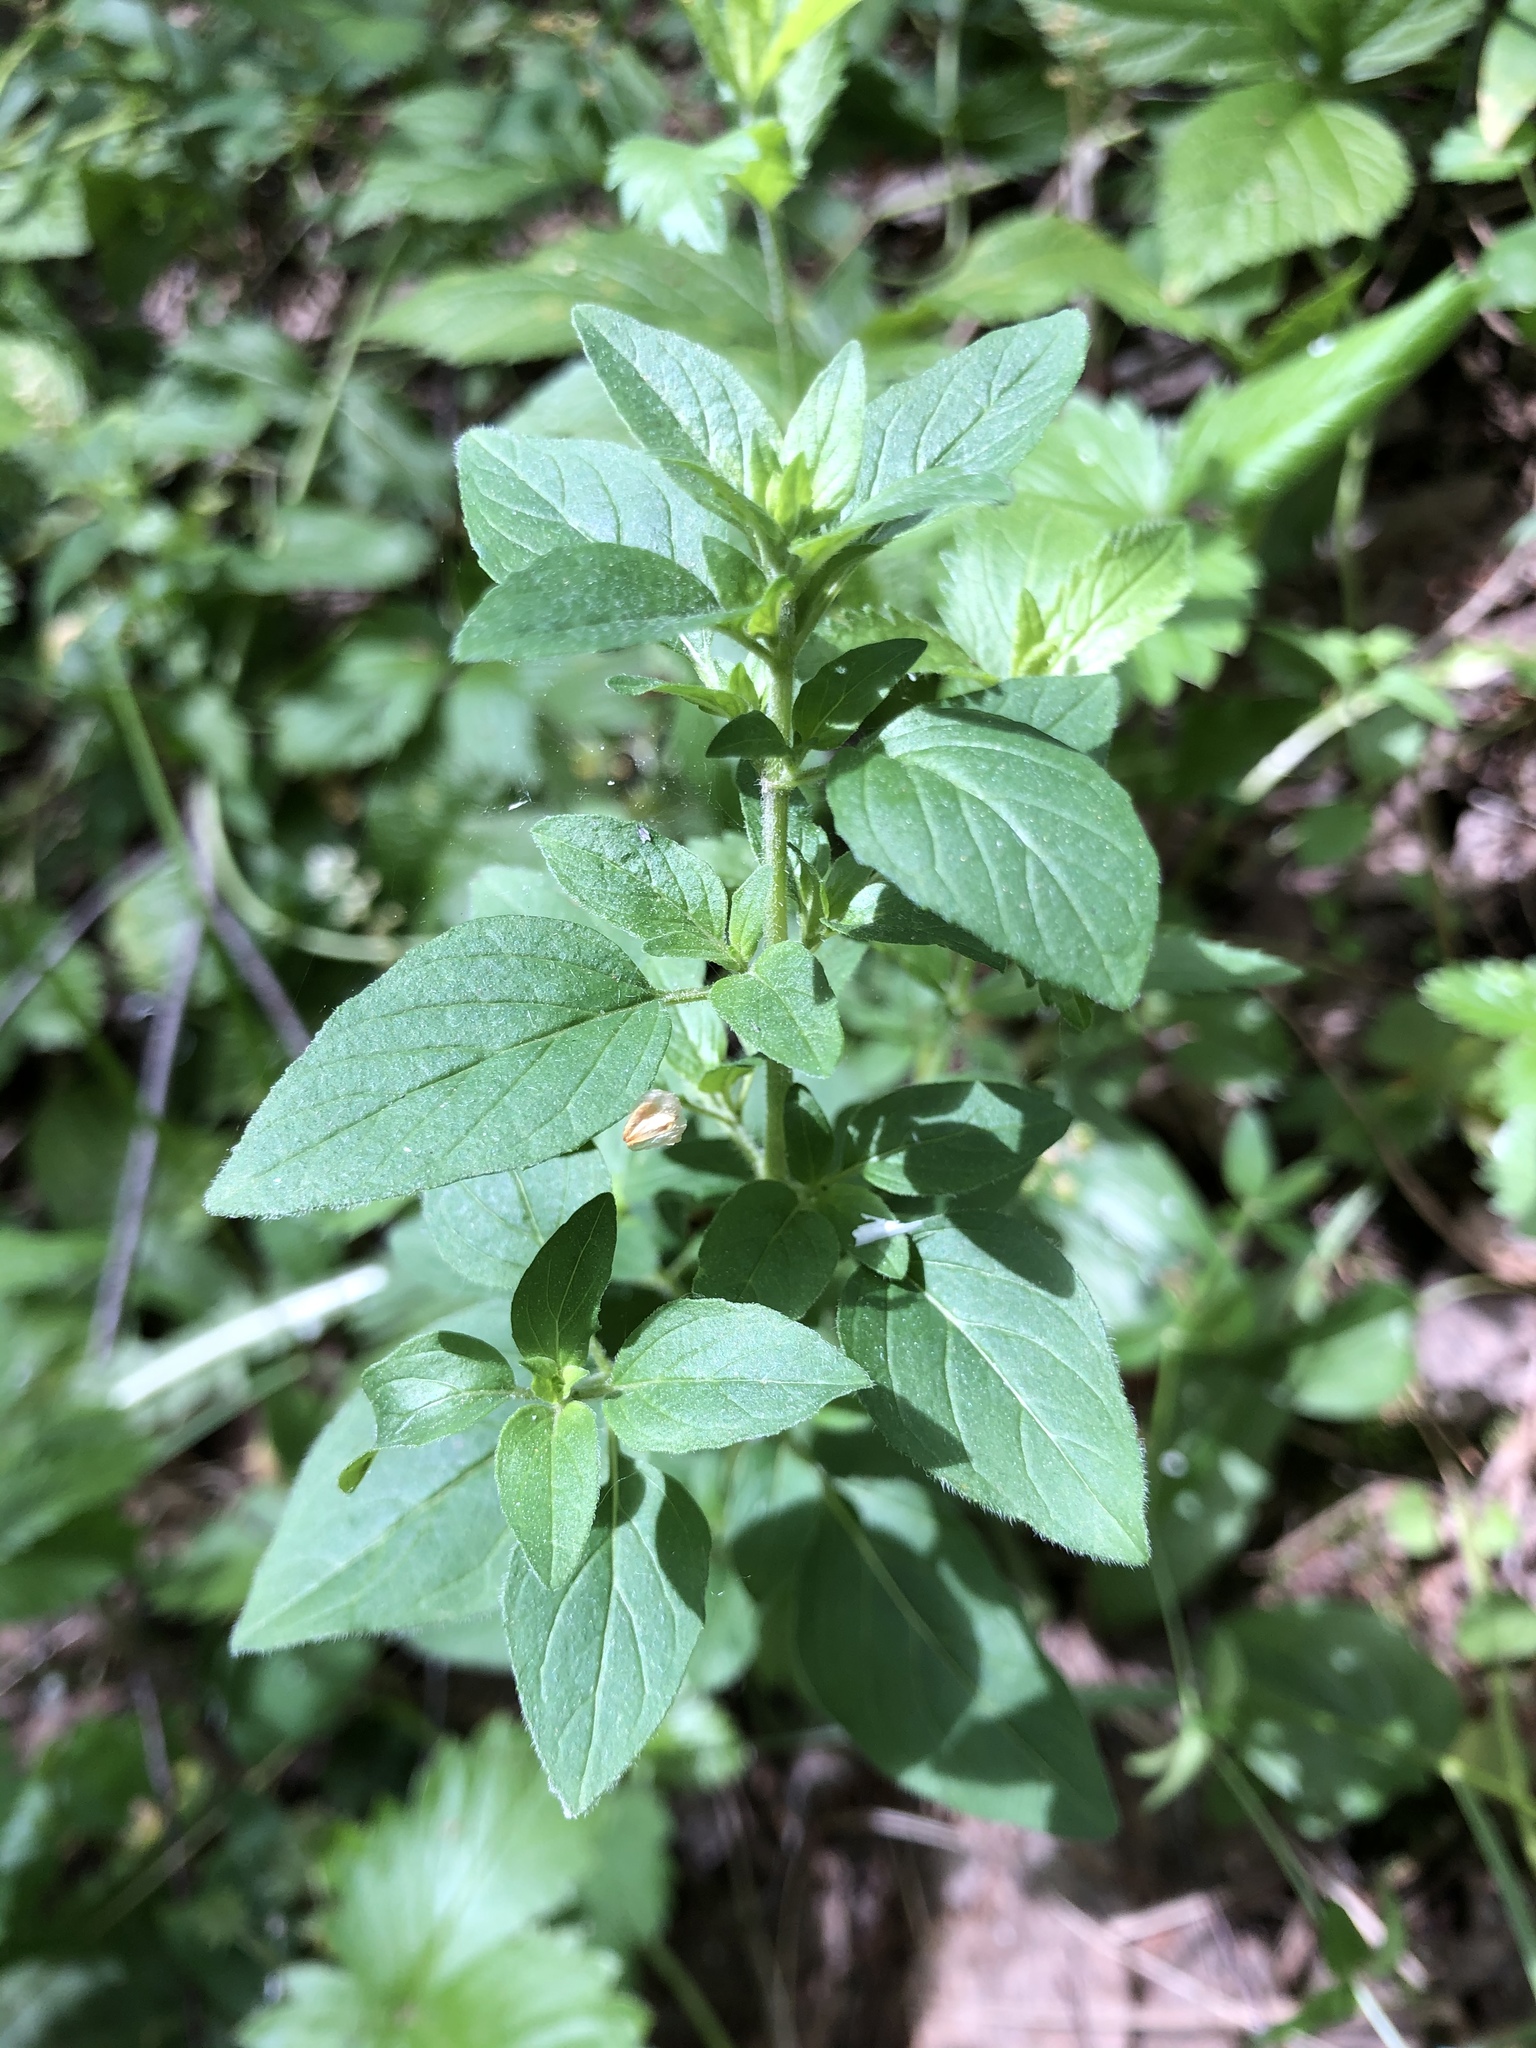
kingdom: Plantae
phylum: Tracheophyta
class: Magnoliopsida
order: Lamiales
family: Lamiaceae
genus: Origanum
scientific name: Origanum vulgare
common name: Wild marjoram
